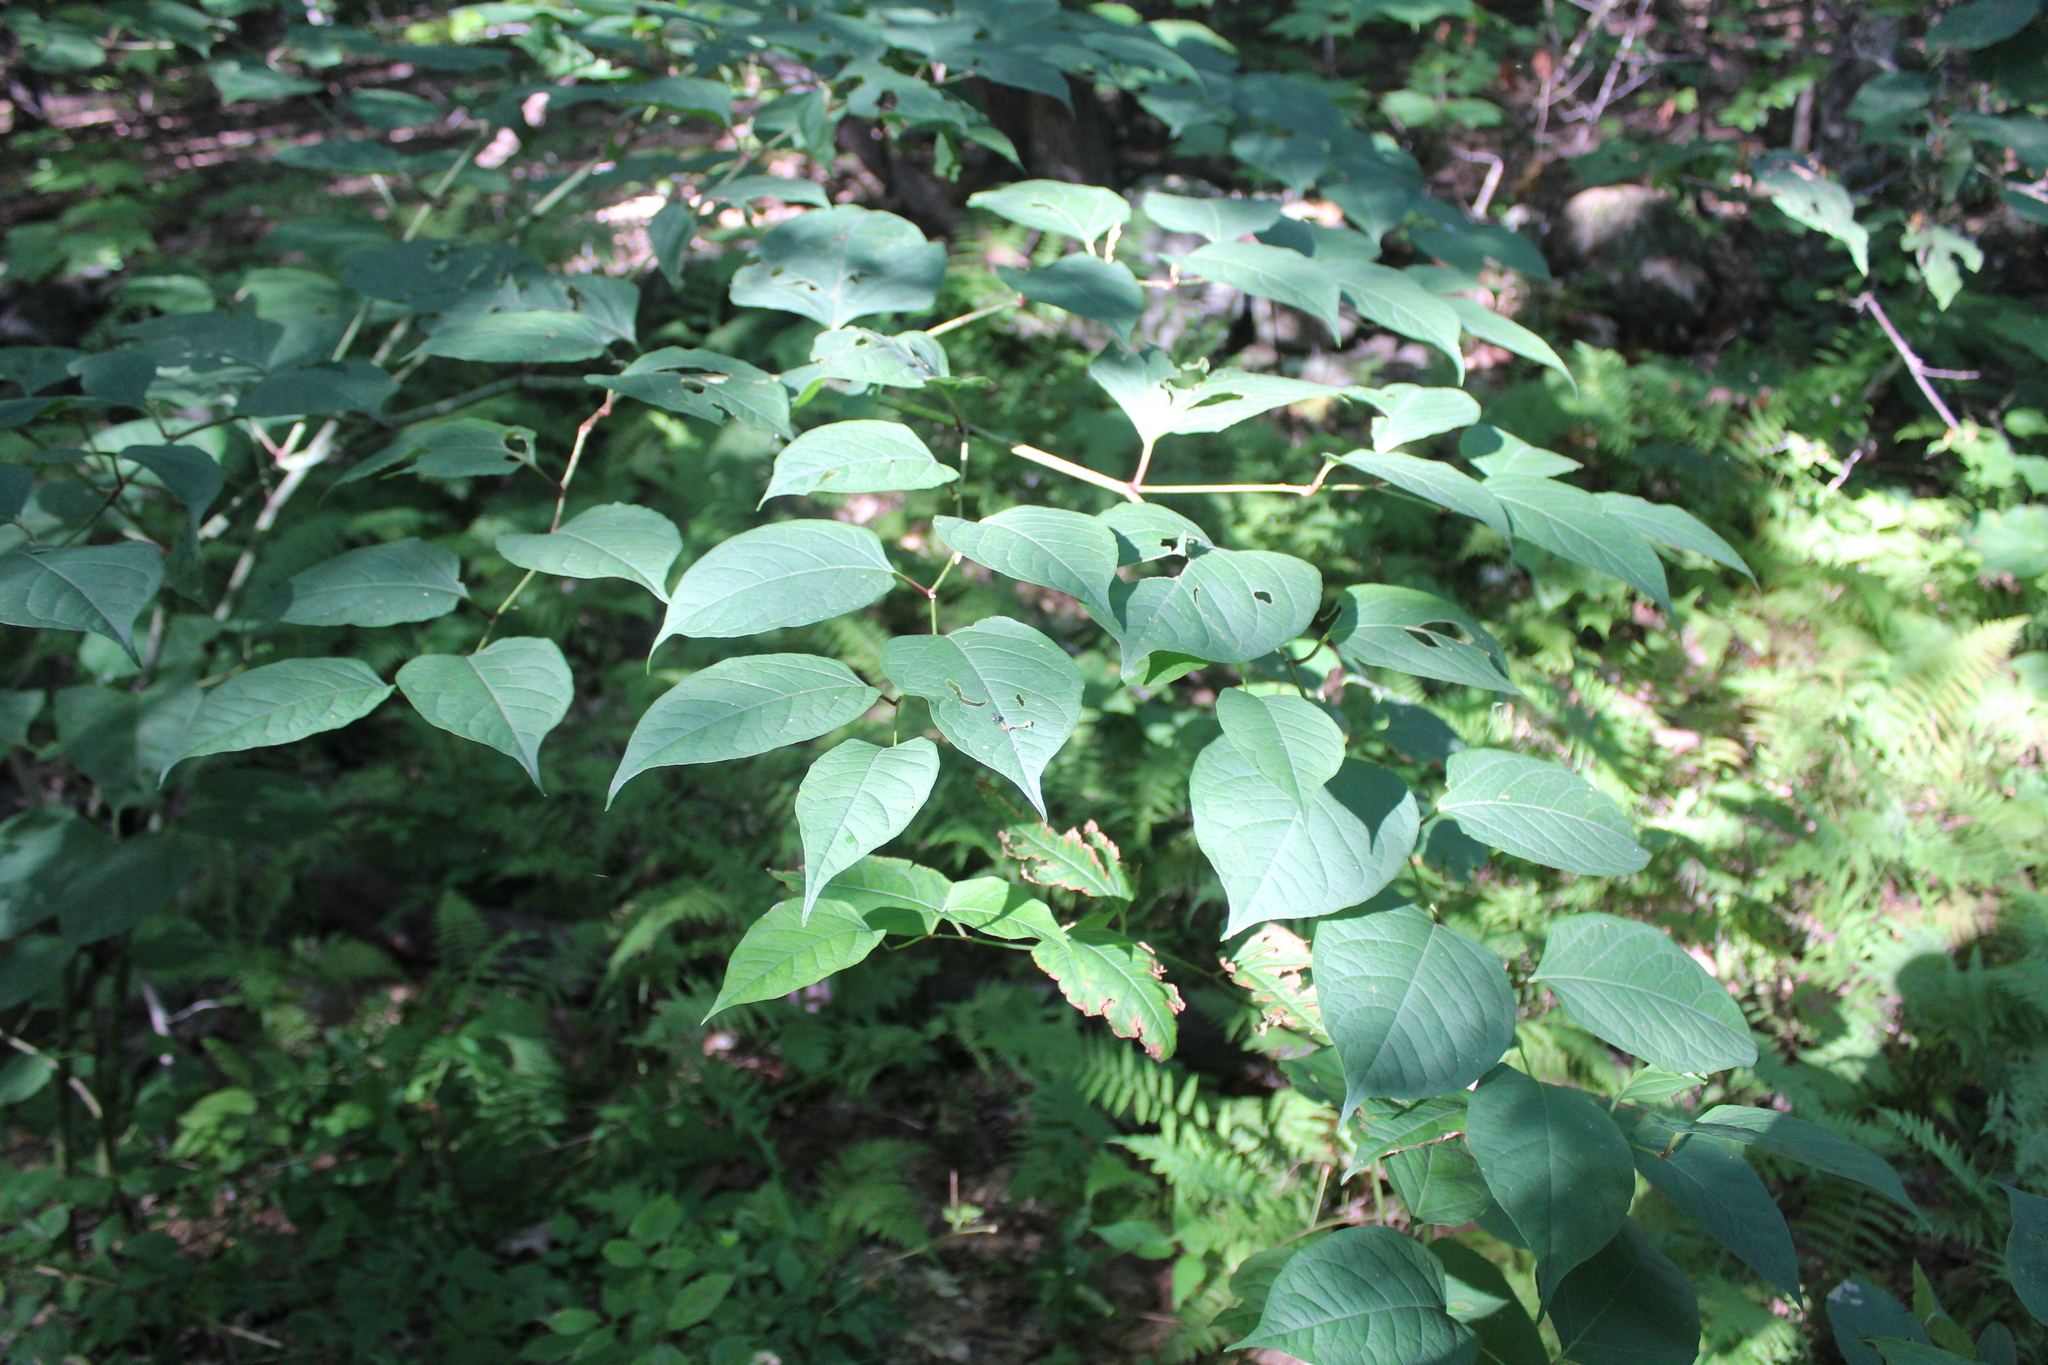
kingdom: Plantae
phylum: Tracheophyta
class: Magnoliopsida
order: Caryophyllales
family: Polygonaceae
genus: Reynoutria
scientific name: Reynoutria japonica
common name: Japanese knotweed
